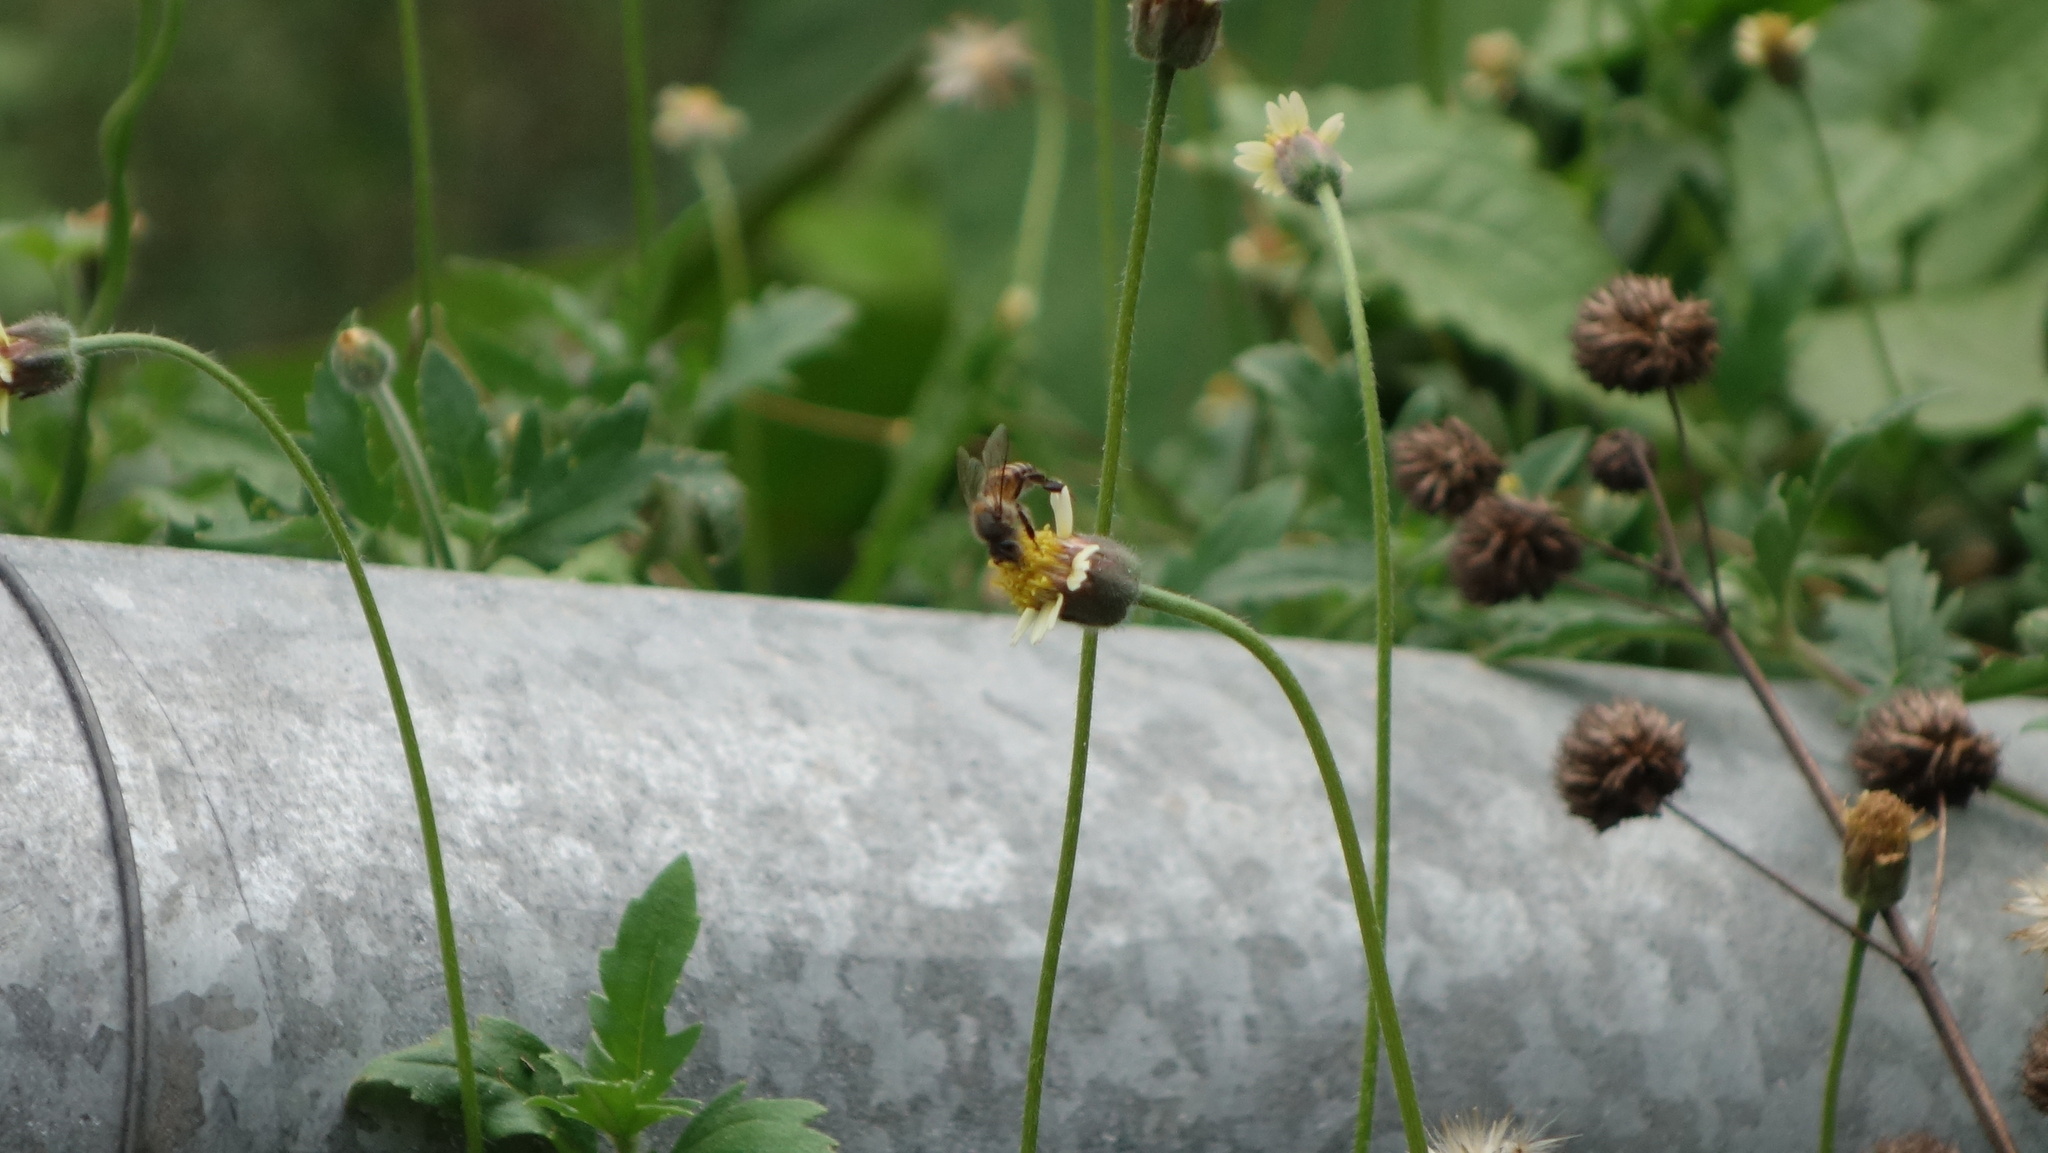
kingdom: Animalia
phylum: Arthropoda
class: Insecta
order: Hymenoptera
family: Apidae
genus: Apis
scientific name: Apis cerana
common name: Honey bee
